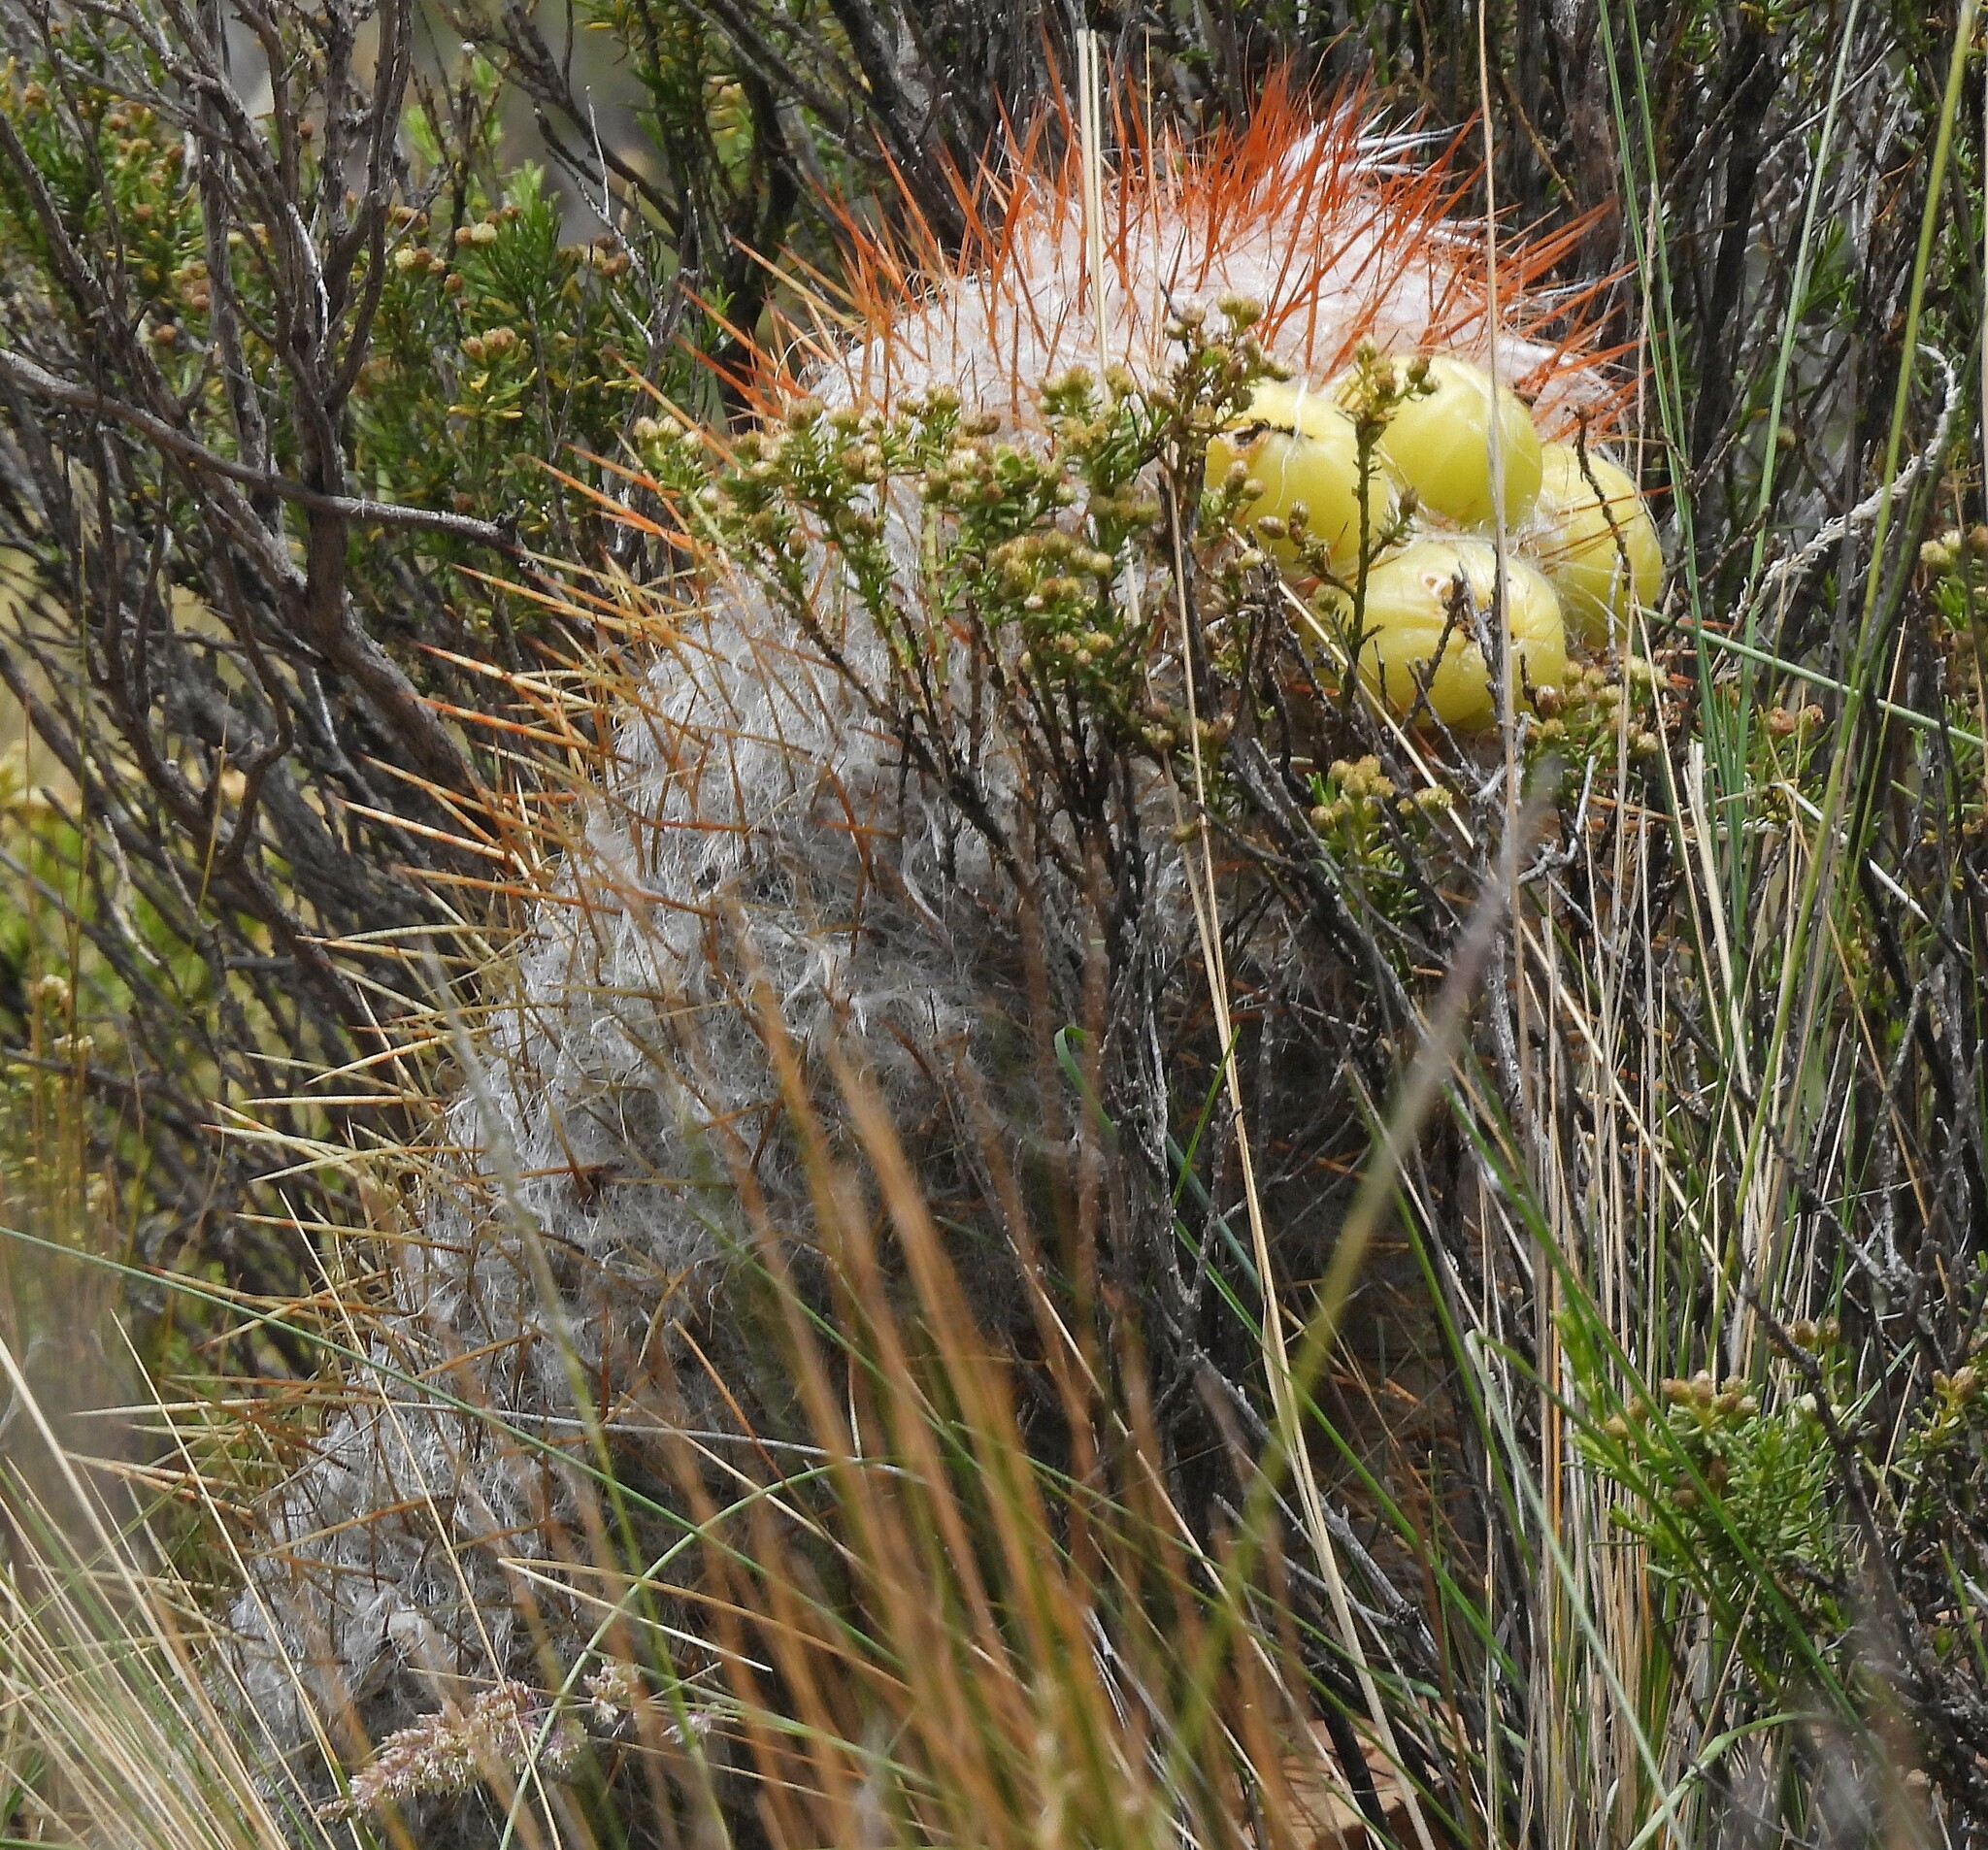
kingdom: Plantae
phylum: Tracheophyta
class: Magnoliopsida
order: Caryophyllales
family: Cactaceae
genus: Oreocereus
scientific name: Oreocereus trollii
